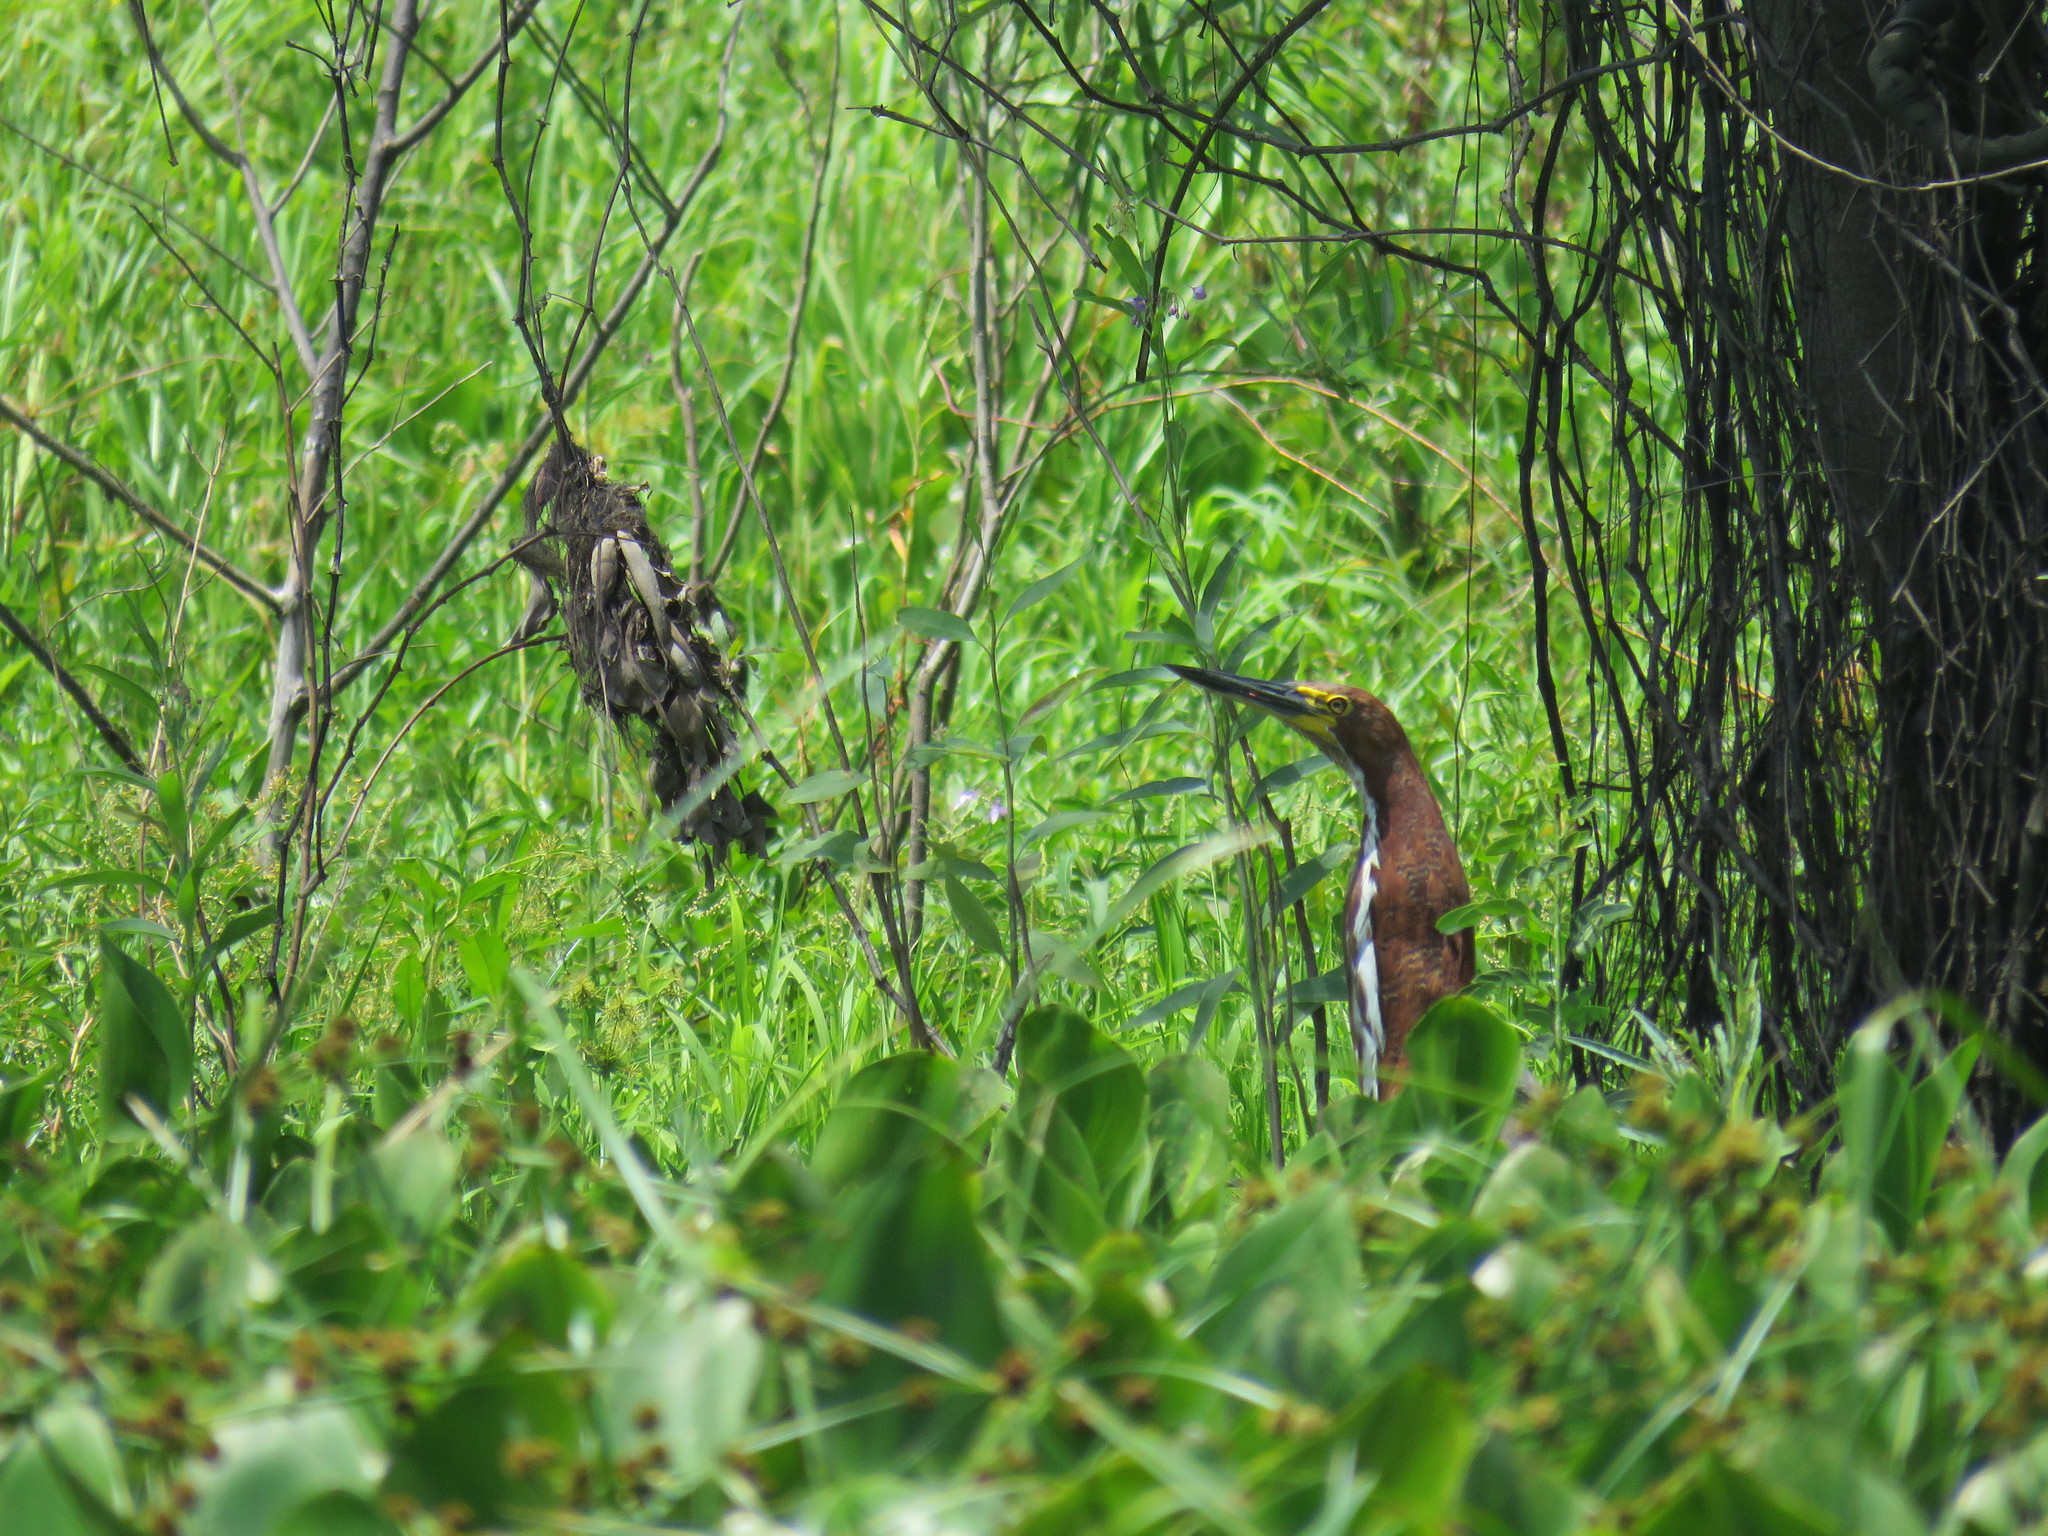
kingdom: Animalia
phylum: Chordata
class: Aves
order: Pelecaniformes
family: Ardeidae
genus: Tigrisoma
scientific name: Tigrisoma lineatum
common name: Rufescent tiger-heron
